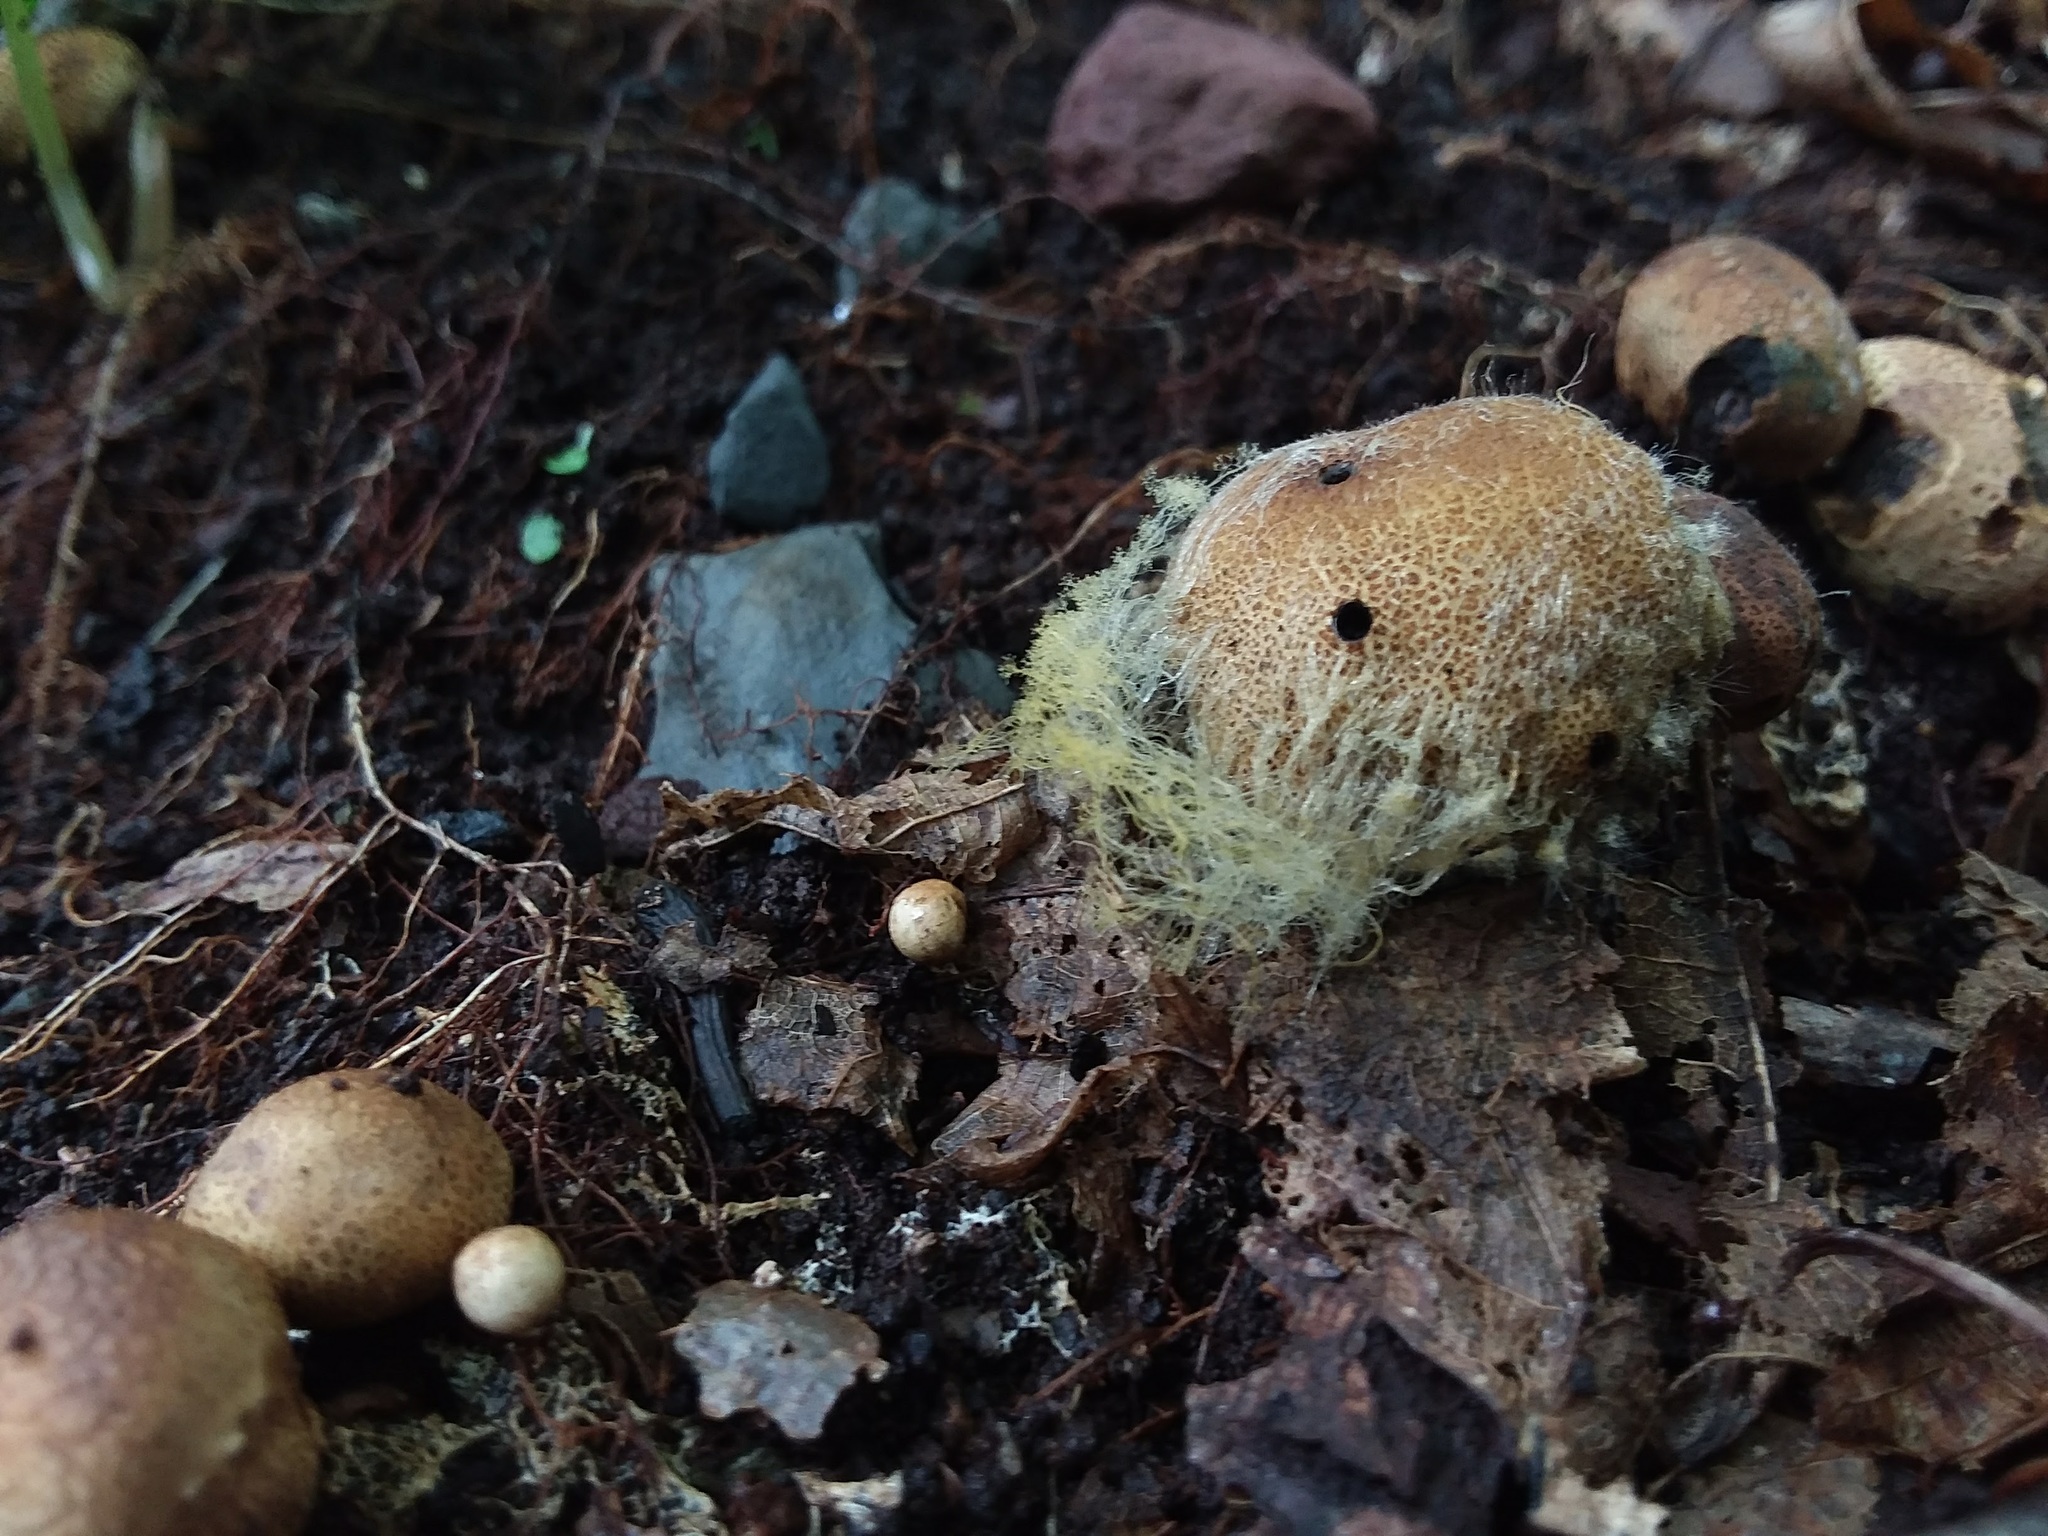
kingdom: Fungi
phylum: Mucoromycota
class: Mucoromycetes
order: Mucorales
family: Rhizopodaceae
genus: Syzygites
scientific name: Syzygites megalocarpus
